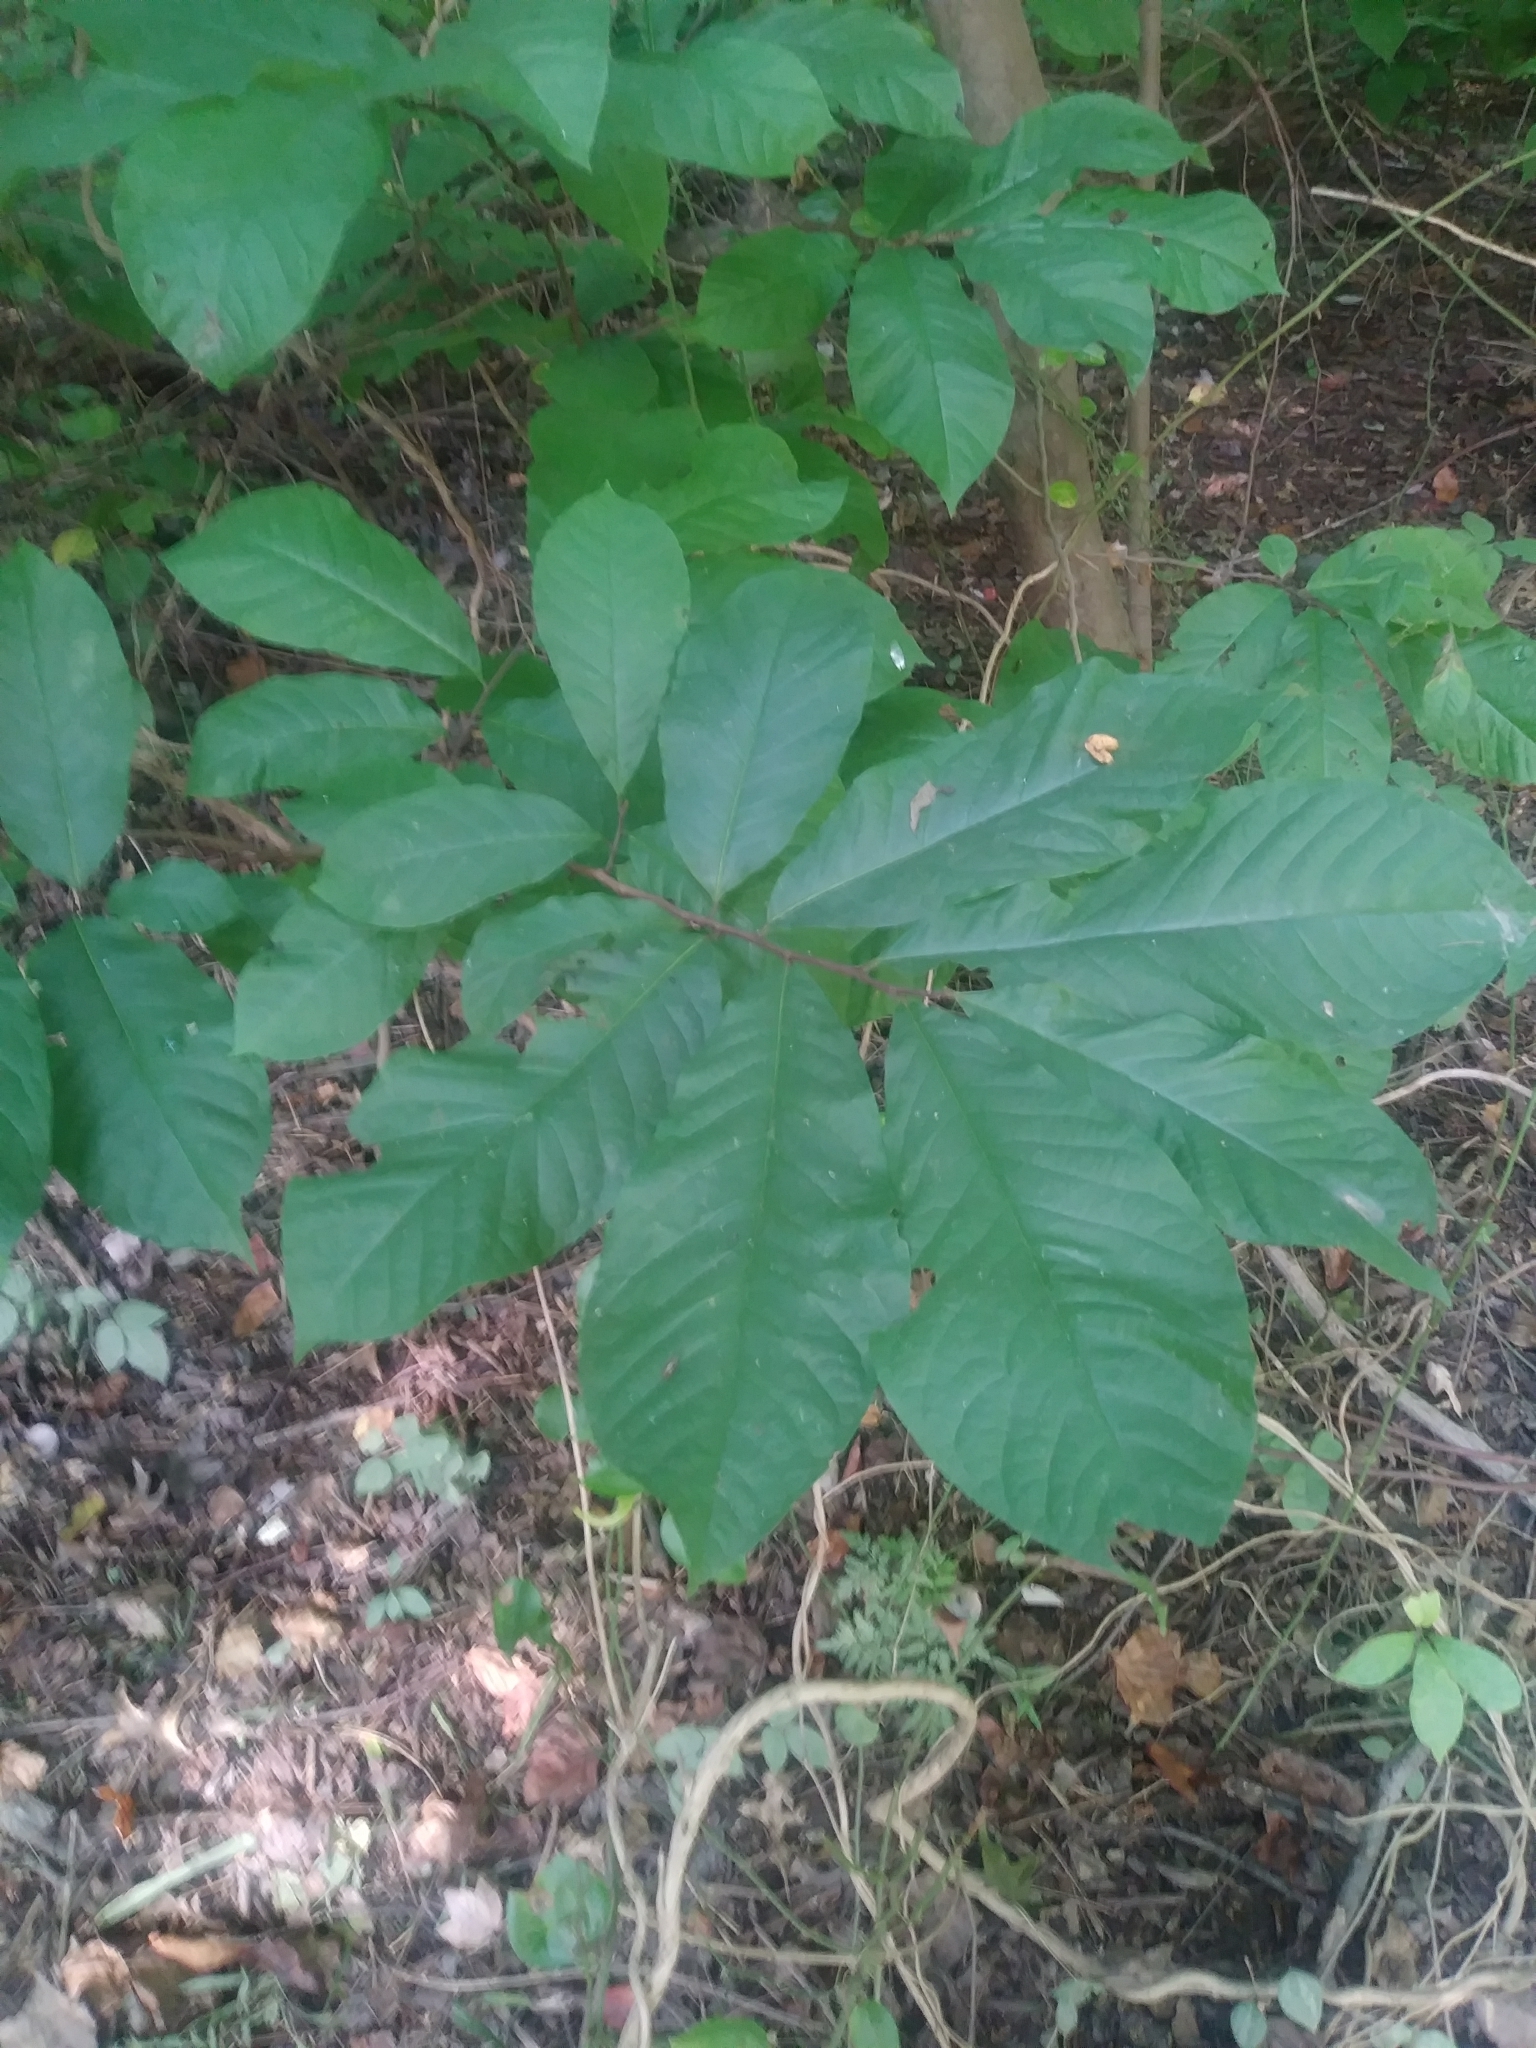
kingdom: Plantae
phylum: Tracheophyta
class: Magnoliopsida
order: Magnoliales
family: Annonaceae
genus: Asimina
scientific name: Asimina triloba
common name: Dog-banana
